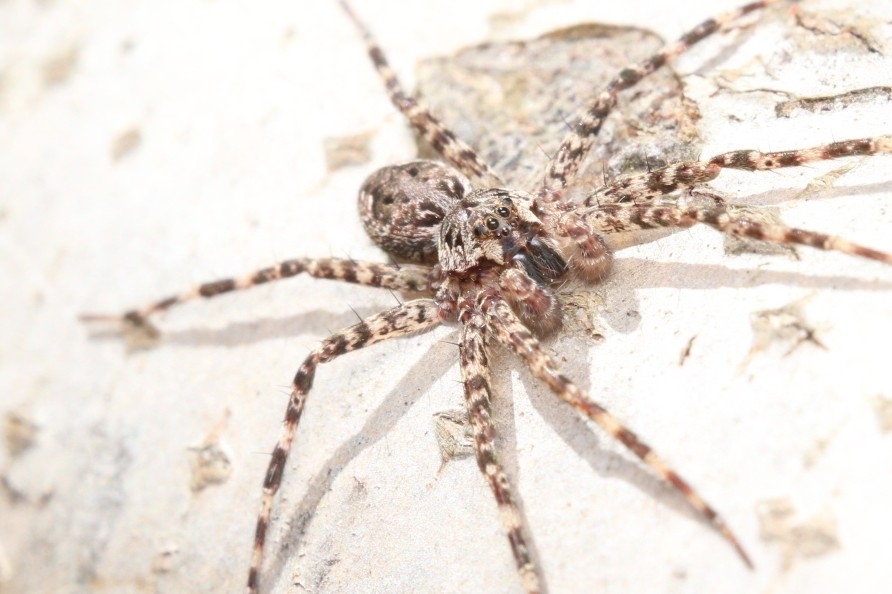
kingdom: Animalia
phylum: Arthropoda
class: Arachnida
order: Araneae
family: Pisauridae
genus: Dolomedes
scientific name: Dolomedes tenebrosus
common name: Dark fishing spider
